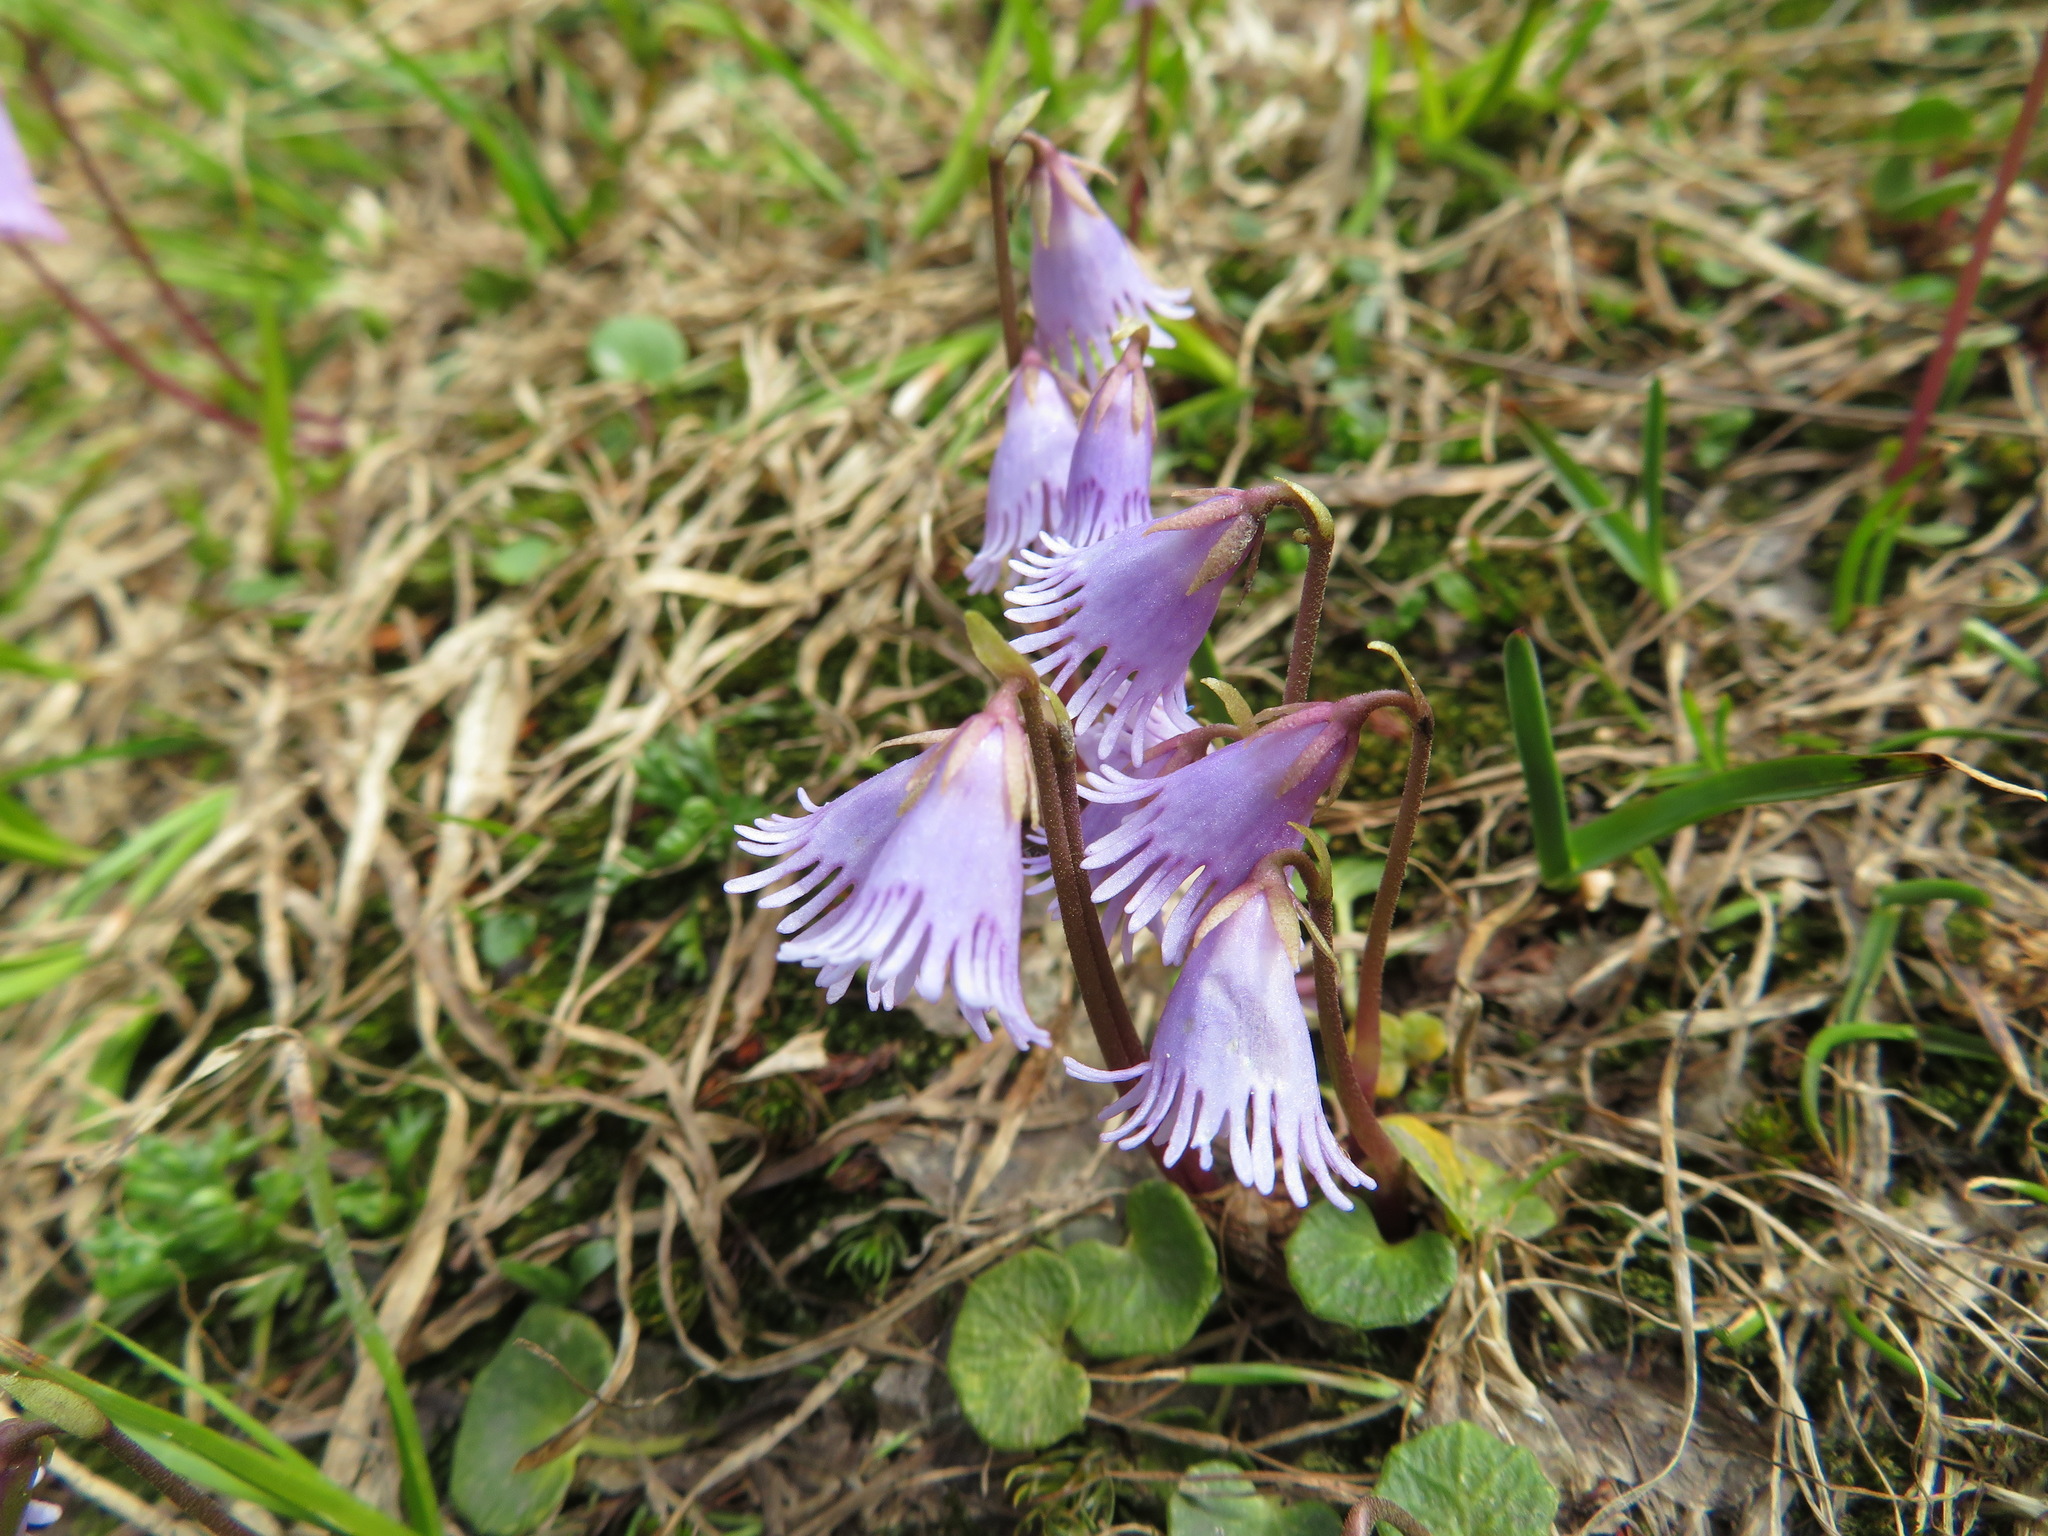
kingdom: Plantae
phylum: Tracheophyta
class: Magnoliopsida
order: Ericales
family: Primulaceae
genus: Soldanella
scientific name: Soldanella alpicola
